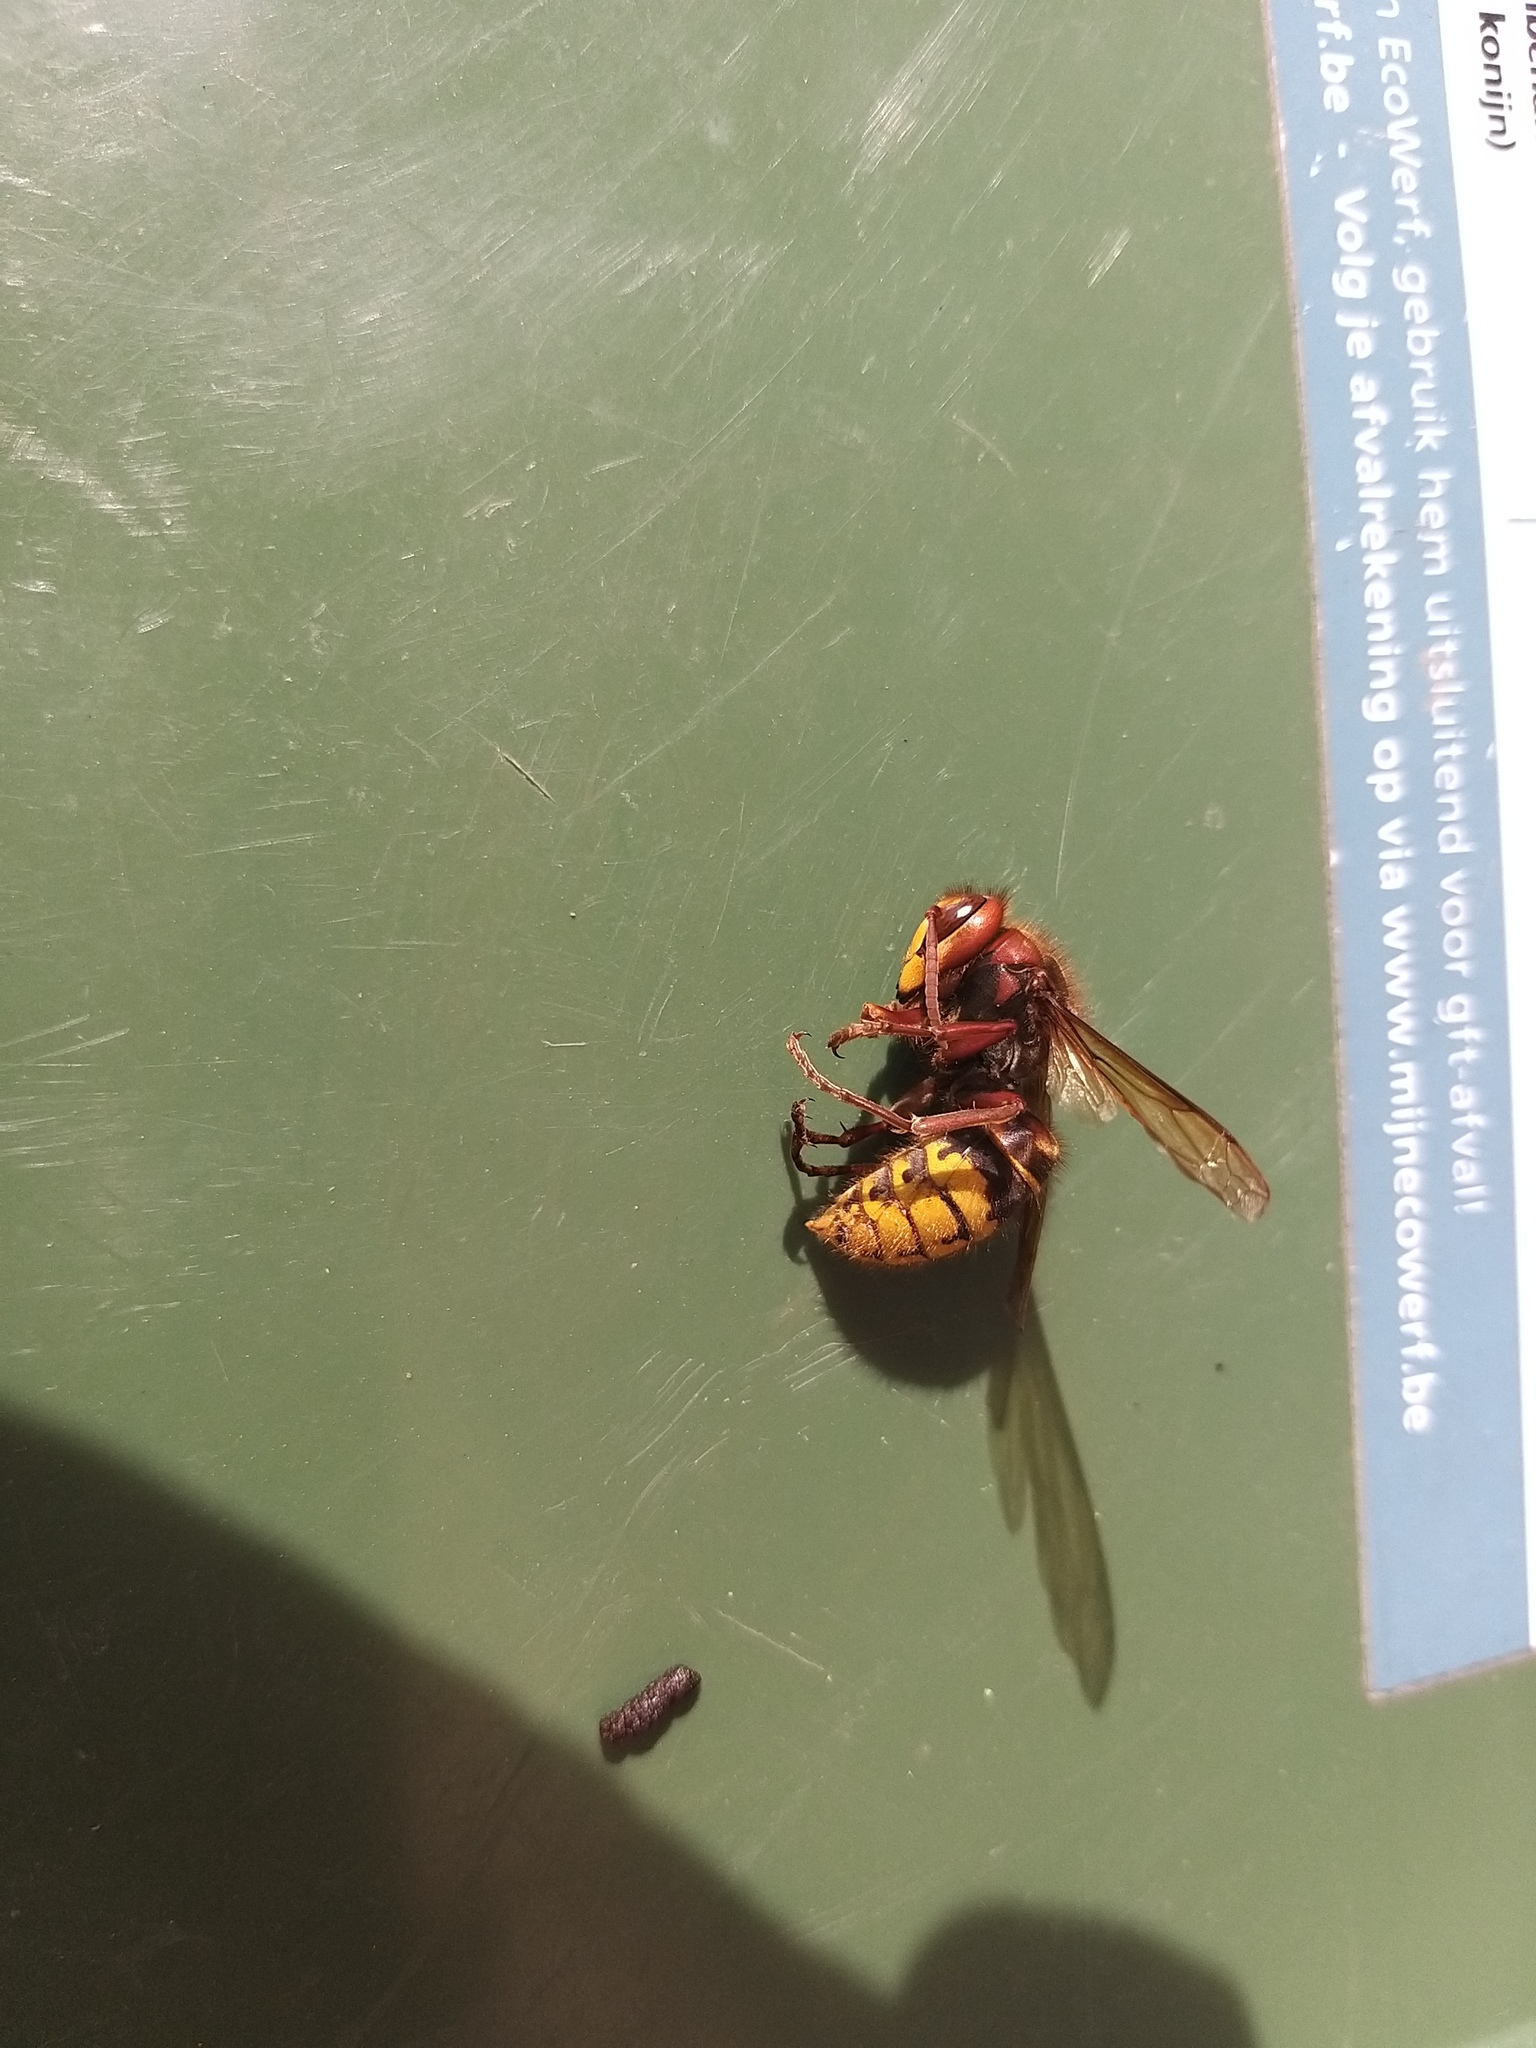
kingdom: Animalia
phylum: Arthropoda
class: Insecta
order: Hymenoptera
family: Vespidae
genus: Vespa
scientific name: Vespa crabro
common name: Hornet
